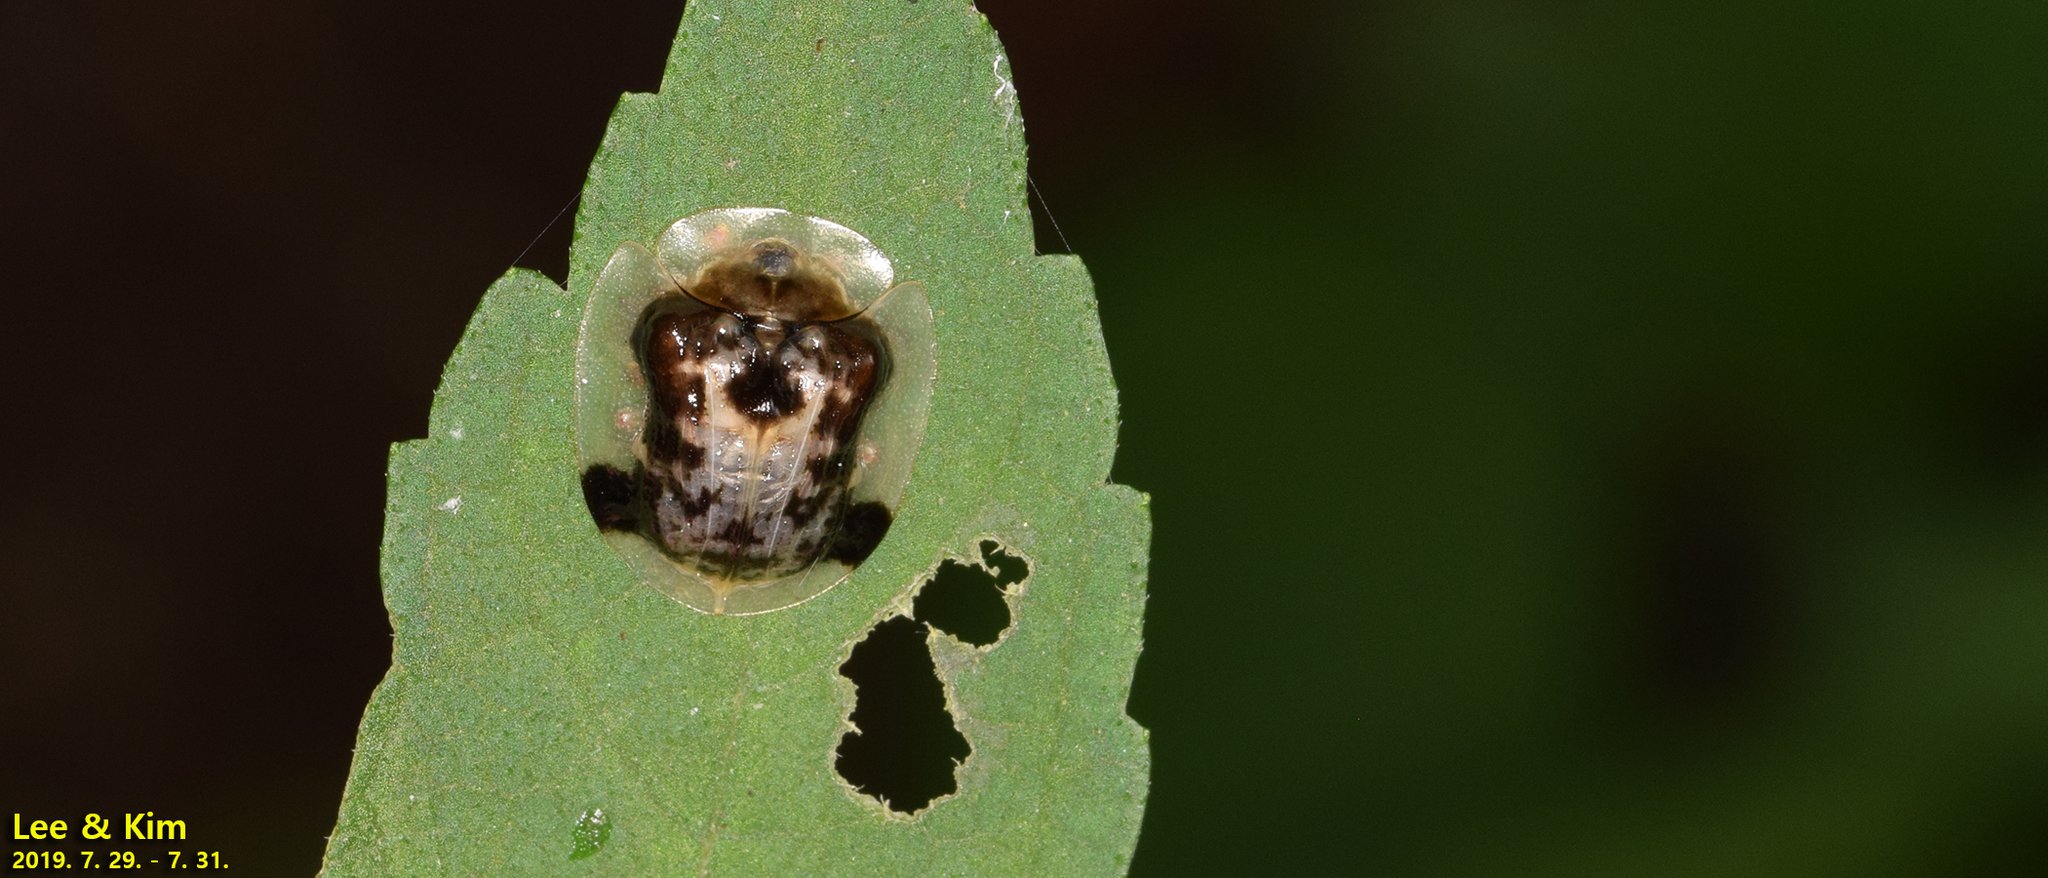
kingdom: Animalia
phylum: Arthropoda
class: Insecta
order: Coleoptera
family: Chrysomelidae
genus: Thlaspida
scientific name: Thlaspida biramosa
